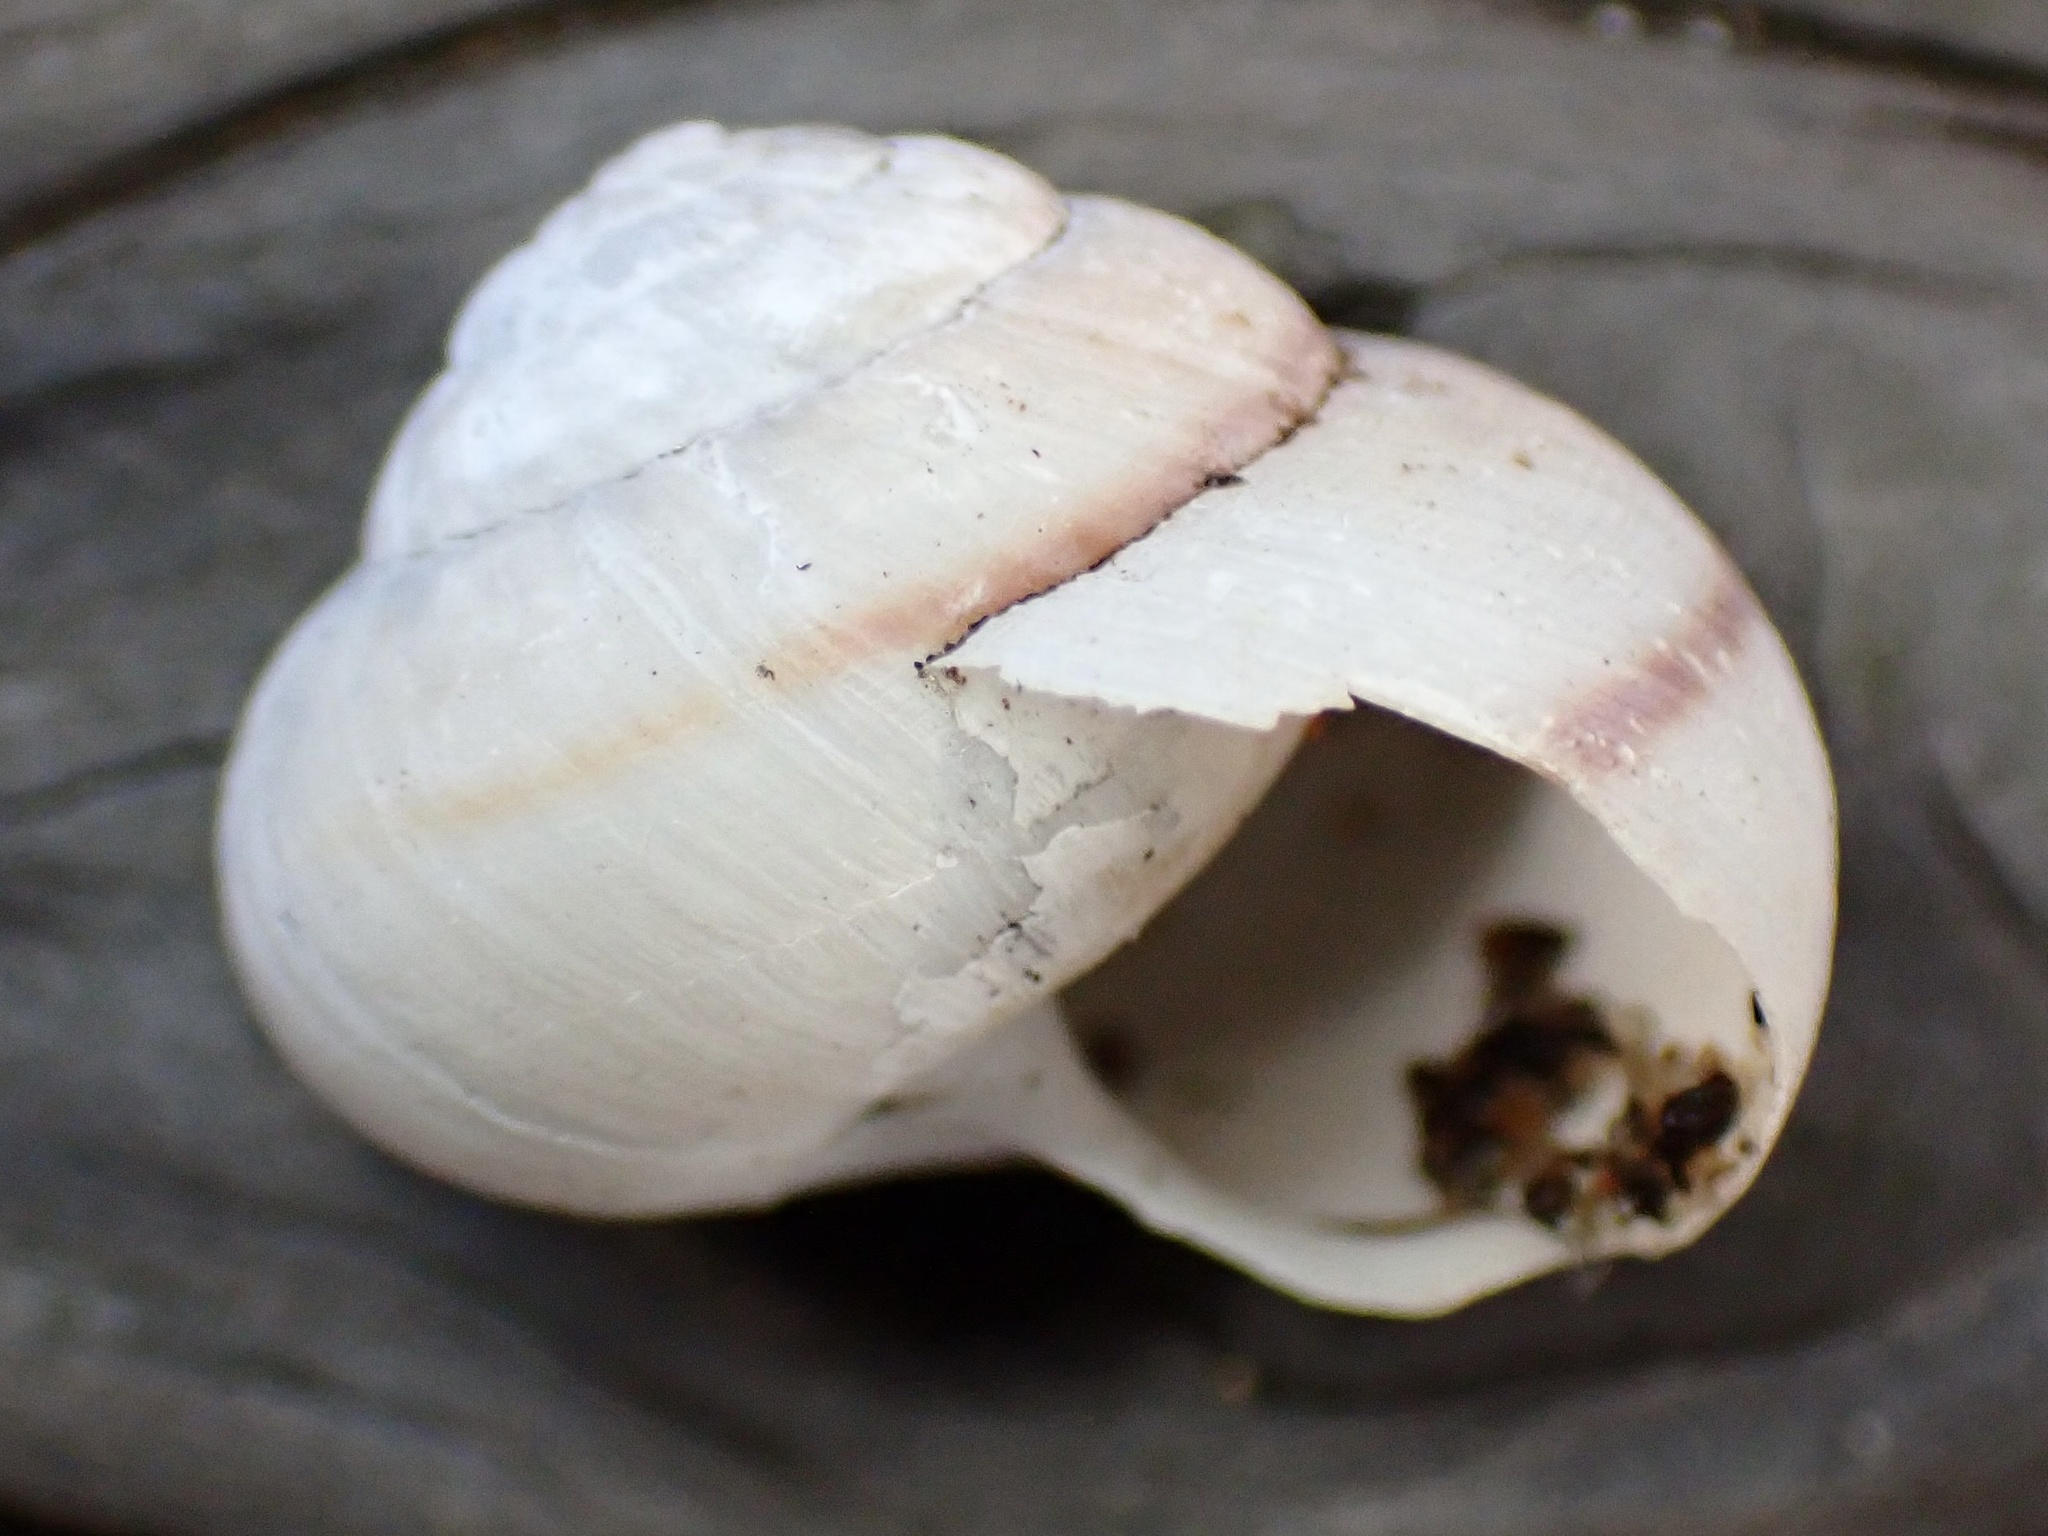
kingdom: Animalia
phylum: Mollusca
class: Gastropoda
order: Stylommatophora
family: Xanthonychidae
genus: Helminthoglypta
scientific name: Helminthoglypta fieldi
